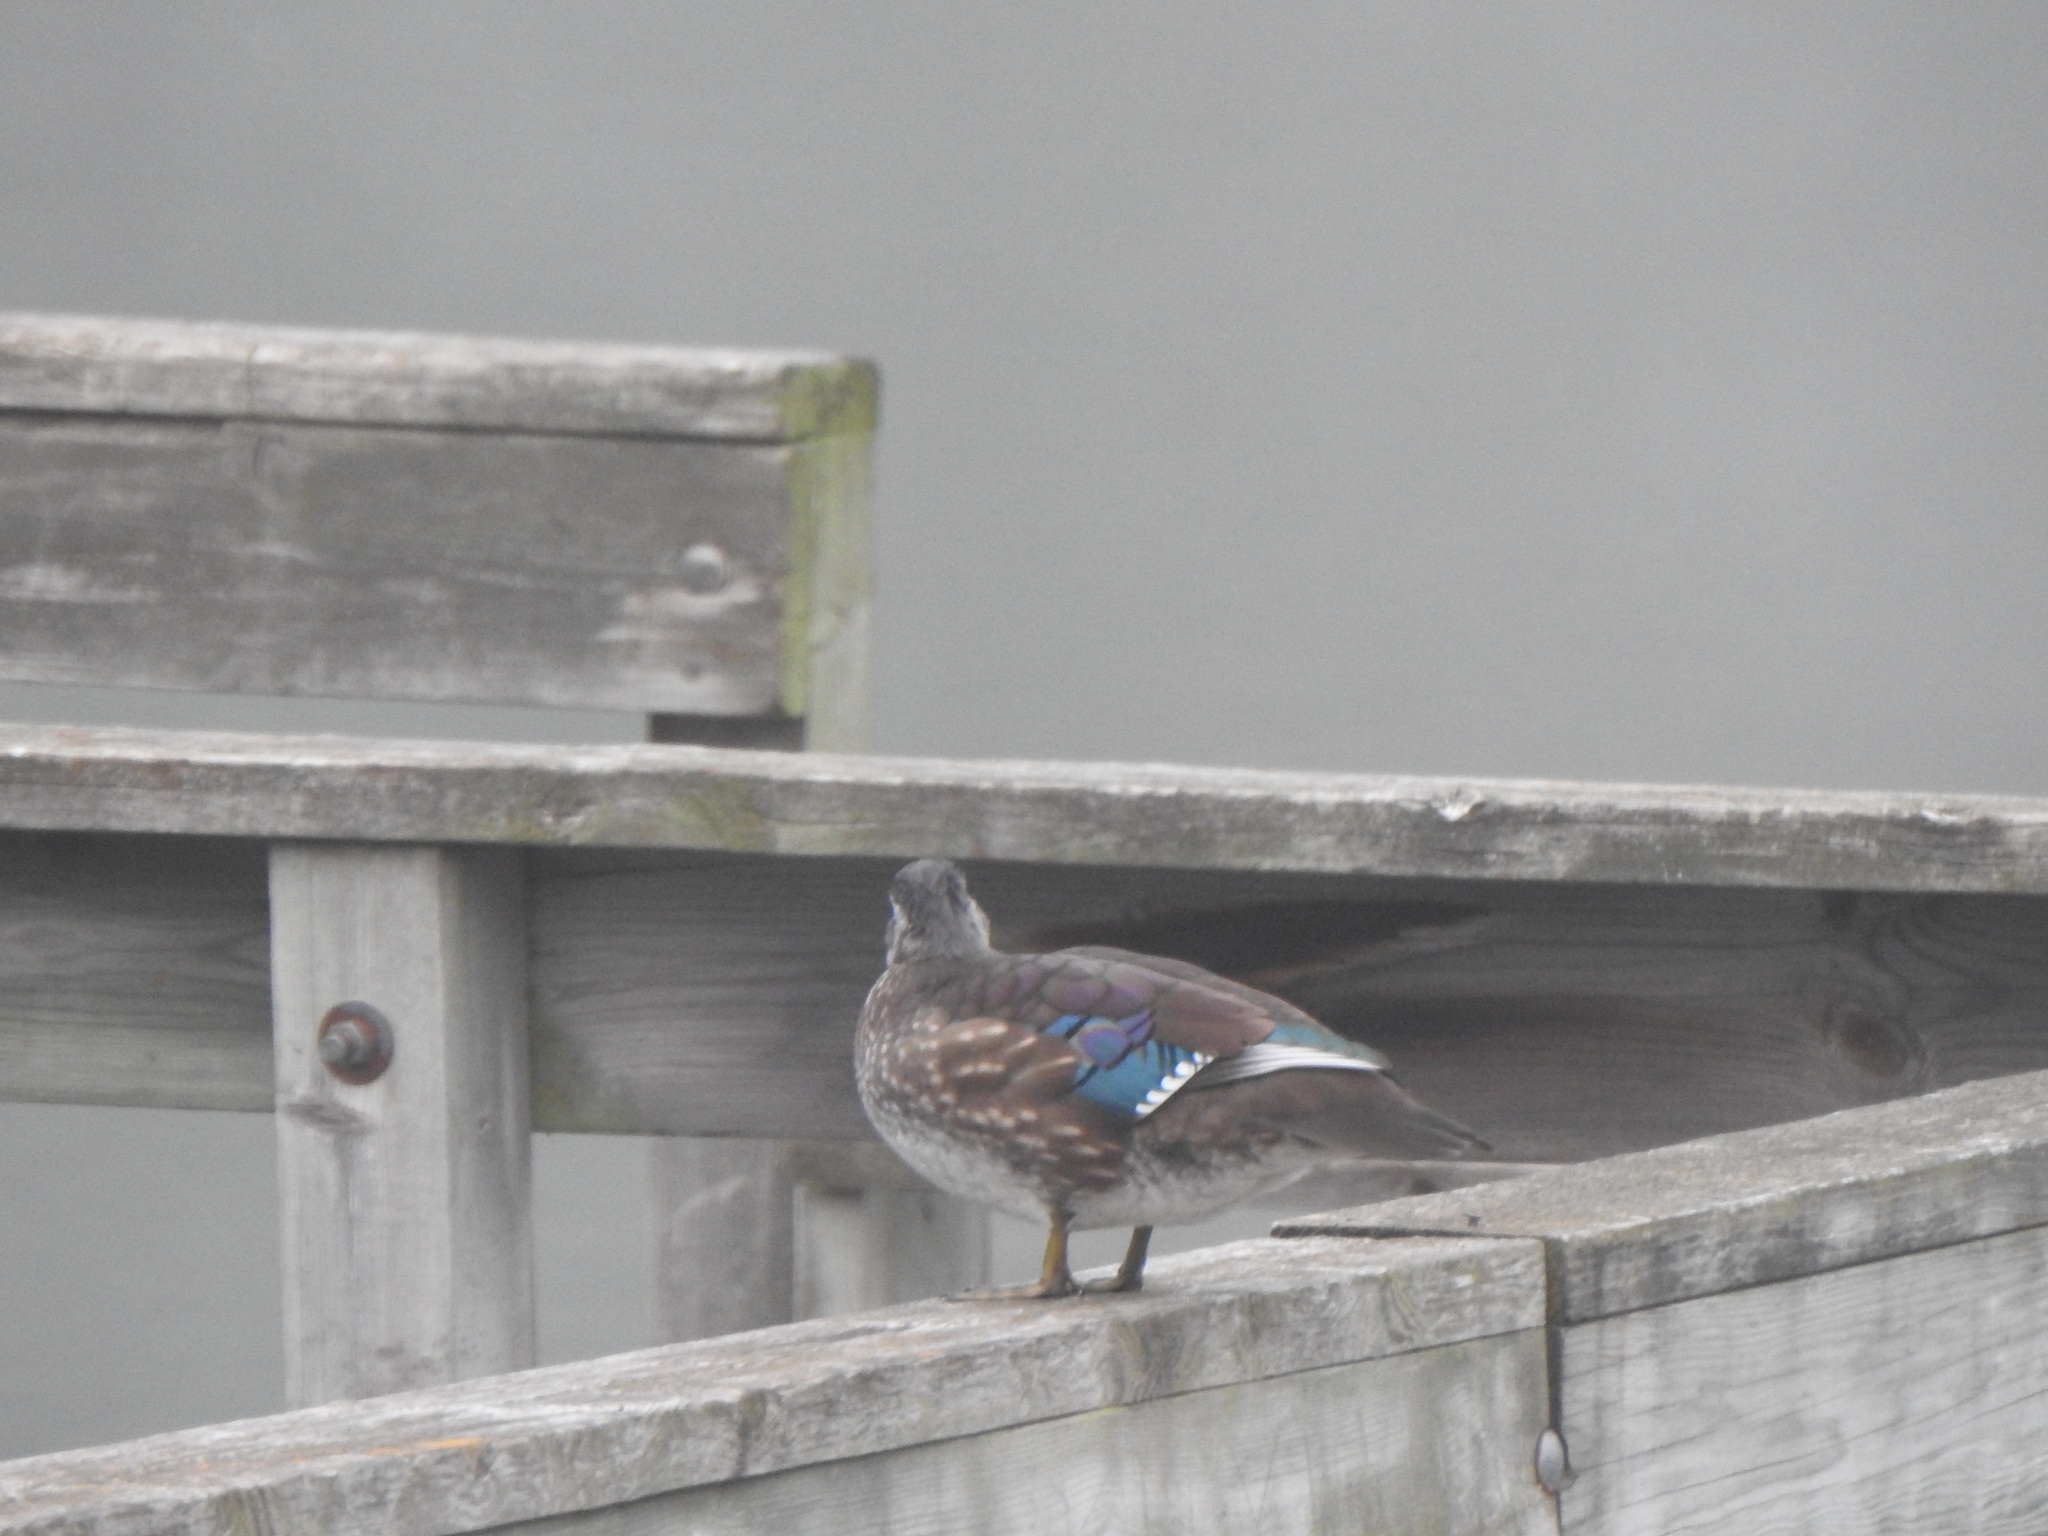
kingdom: Animalia
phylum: Chordata
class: Aves
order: Anseriformes
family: Anatidae
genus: Aix
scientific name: Aix sponsa
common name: Wood duck
